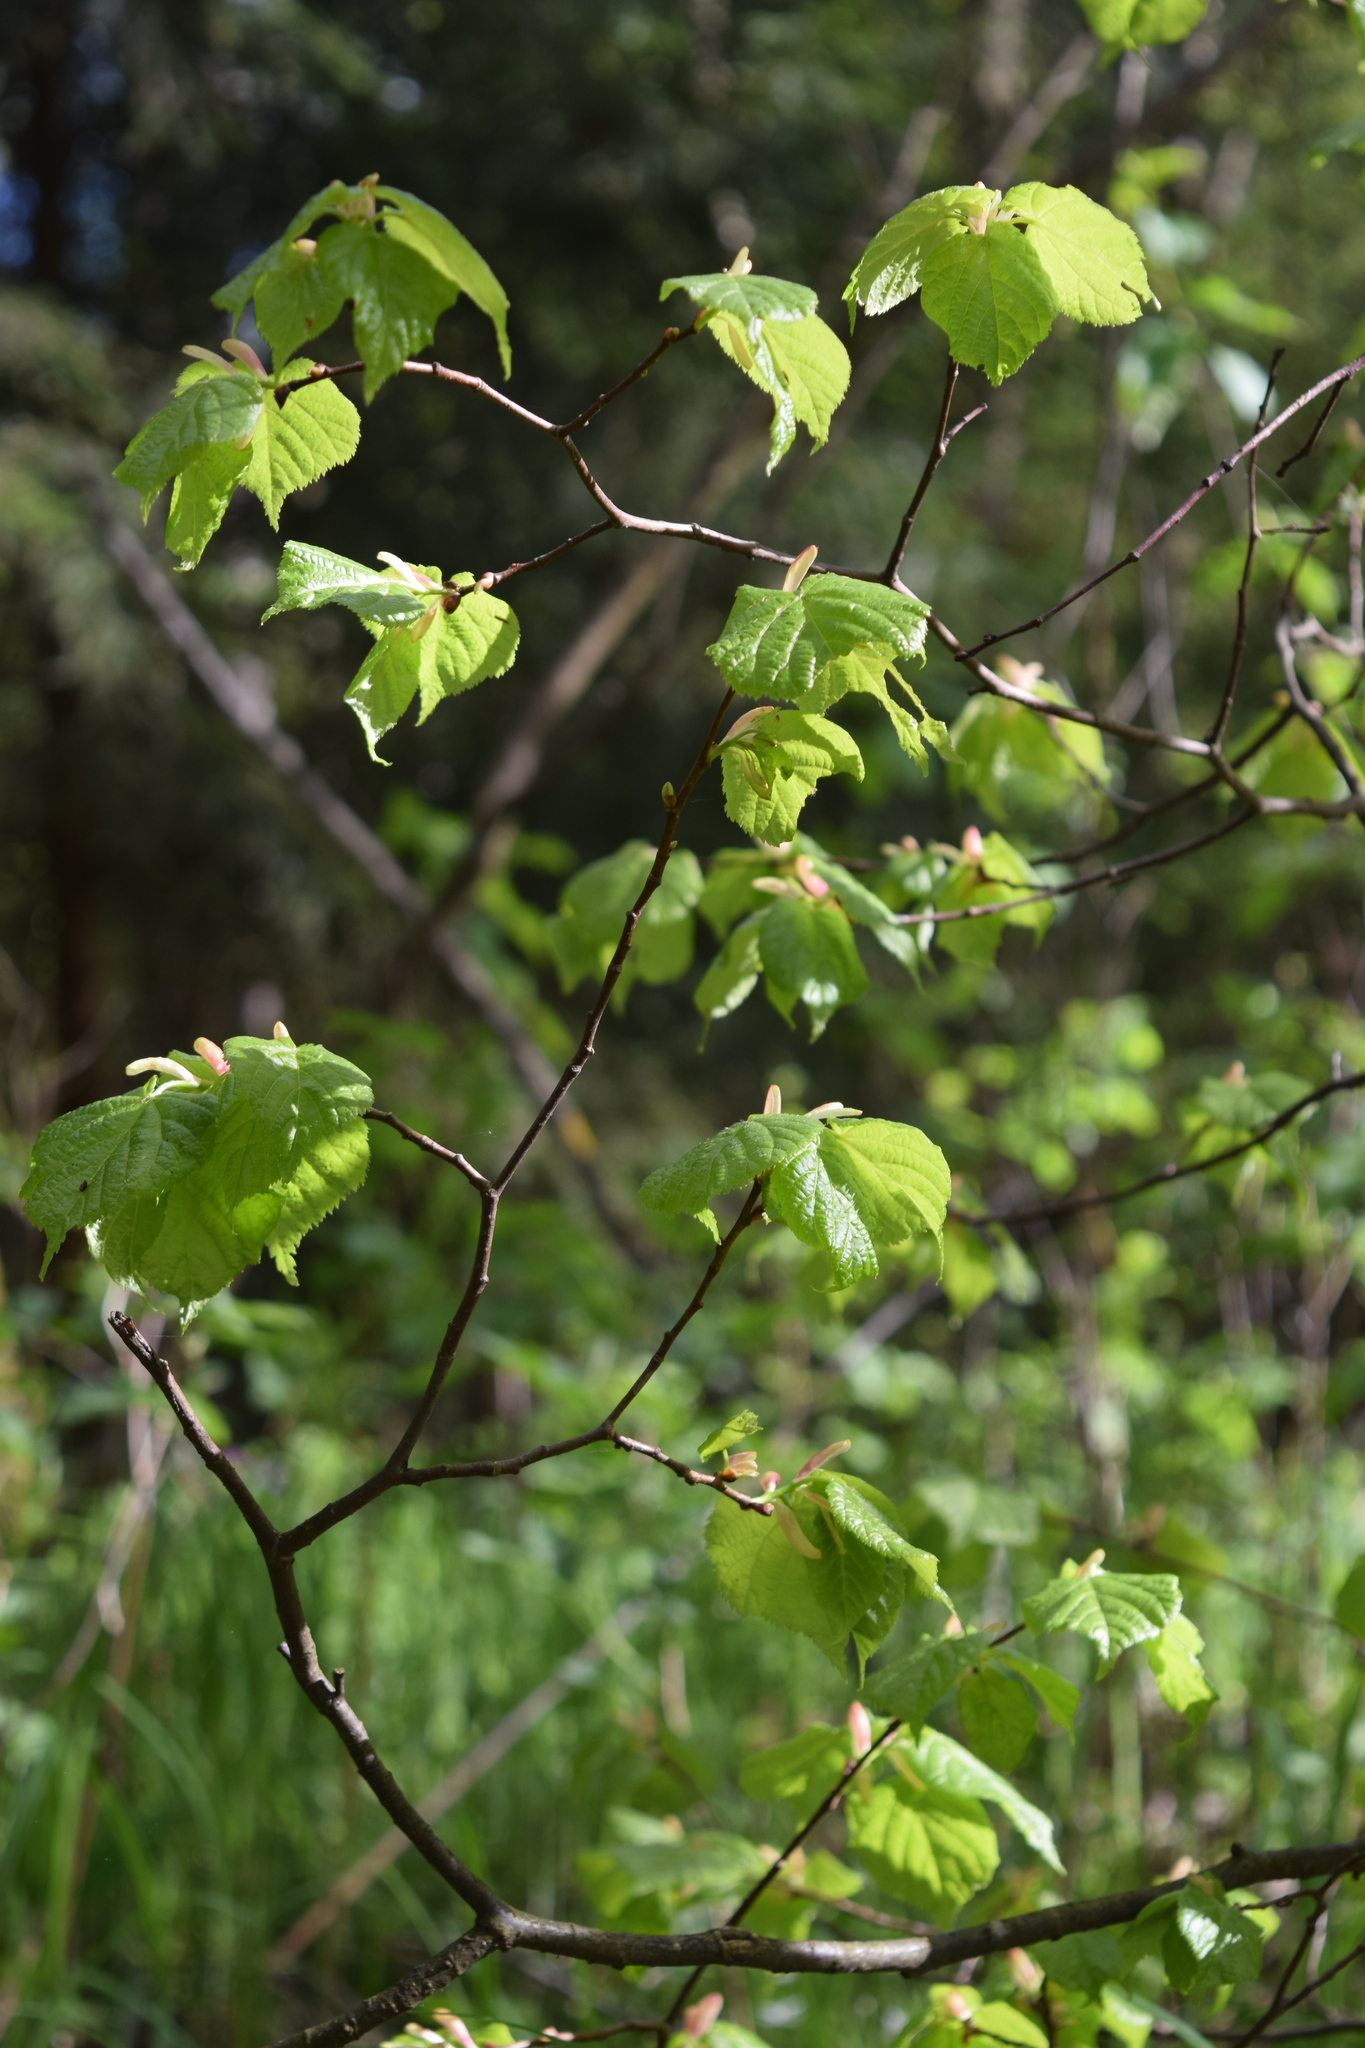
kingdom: Plantae
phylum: Tracheophyta
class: Magnoliopsida
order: Malvales
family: Malvaceae
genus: Tilia
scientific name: Tilia cordata
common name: Small-leaved lime
